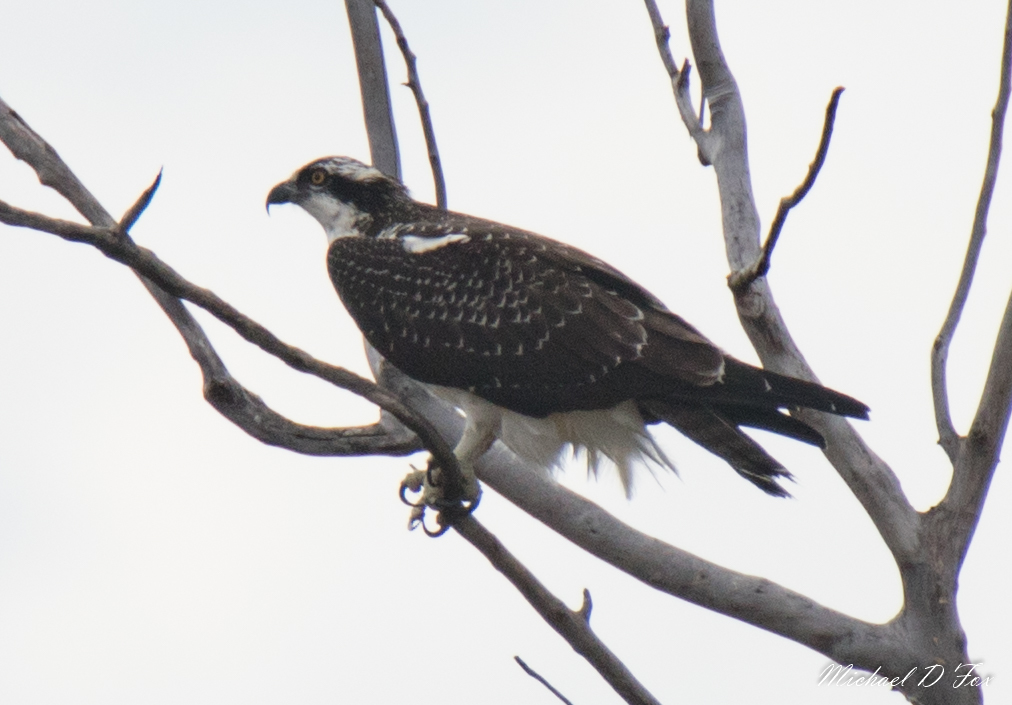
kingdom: Animalia
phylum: Chordata
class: Aves
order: Accipitriformes
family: Pandionidae
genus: Pandion
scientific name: Pandion haliaetus
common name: Osprey
